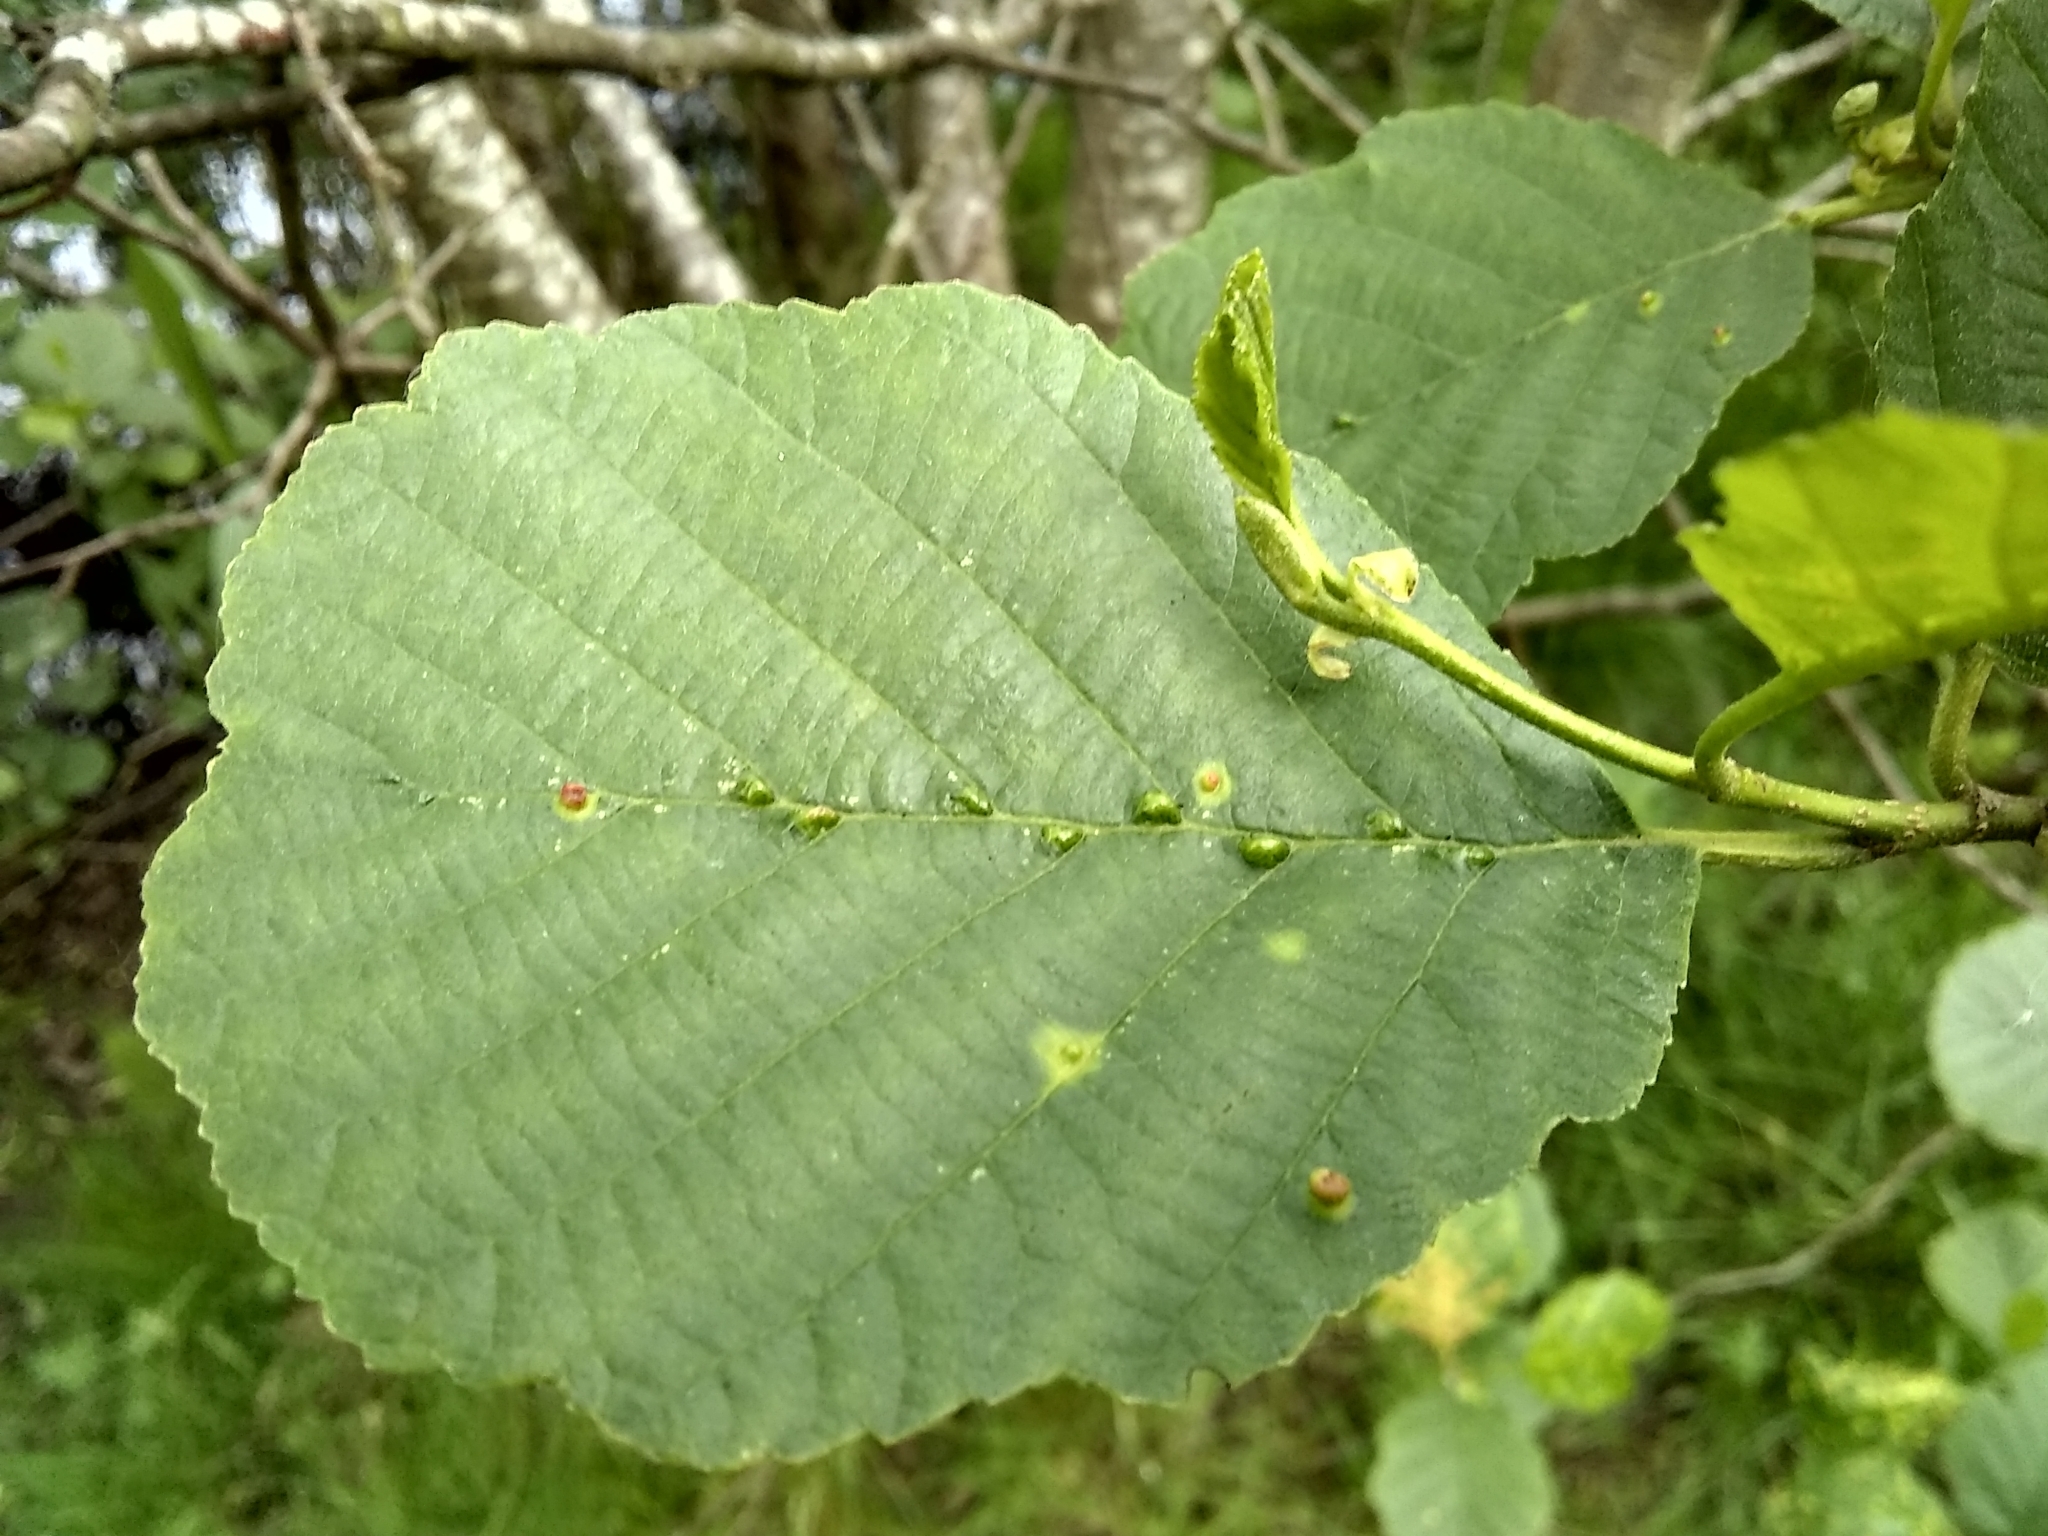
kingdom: Animalia
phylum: Arthropoda
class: Arachnida
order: Trombidiformes
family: Eriophyidae
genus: Eriophyes
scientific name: Eriophyes inangulis
